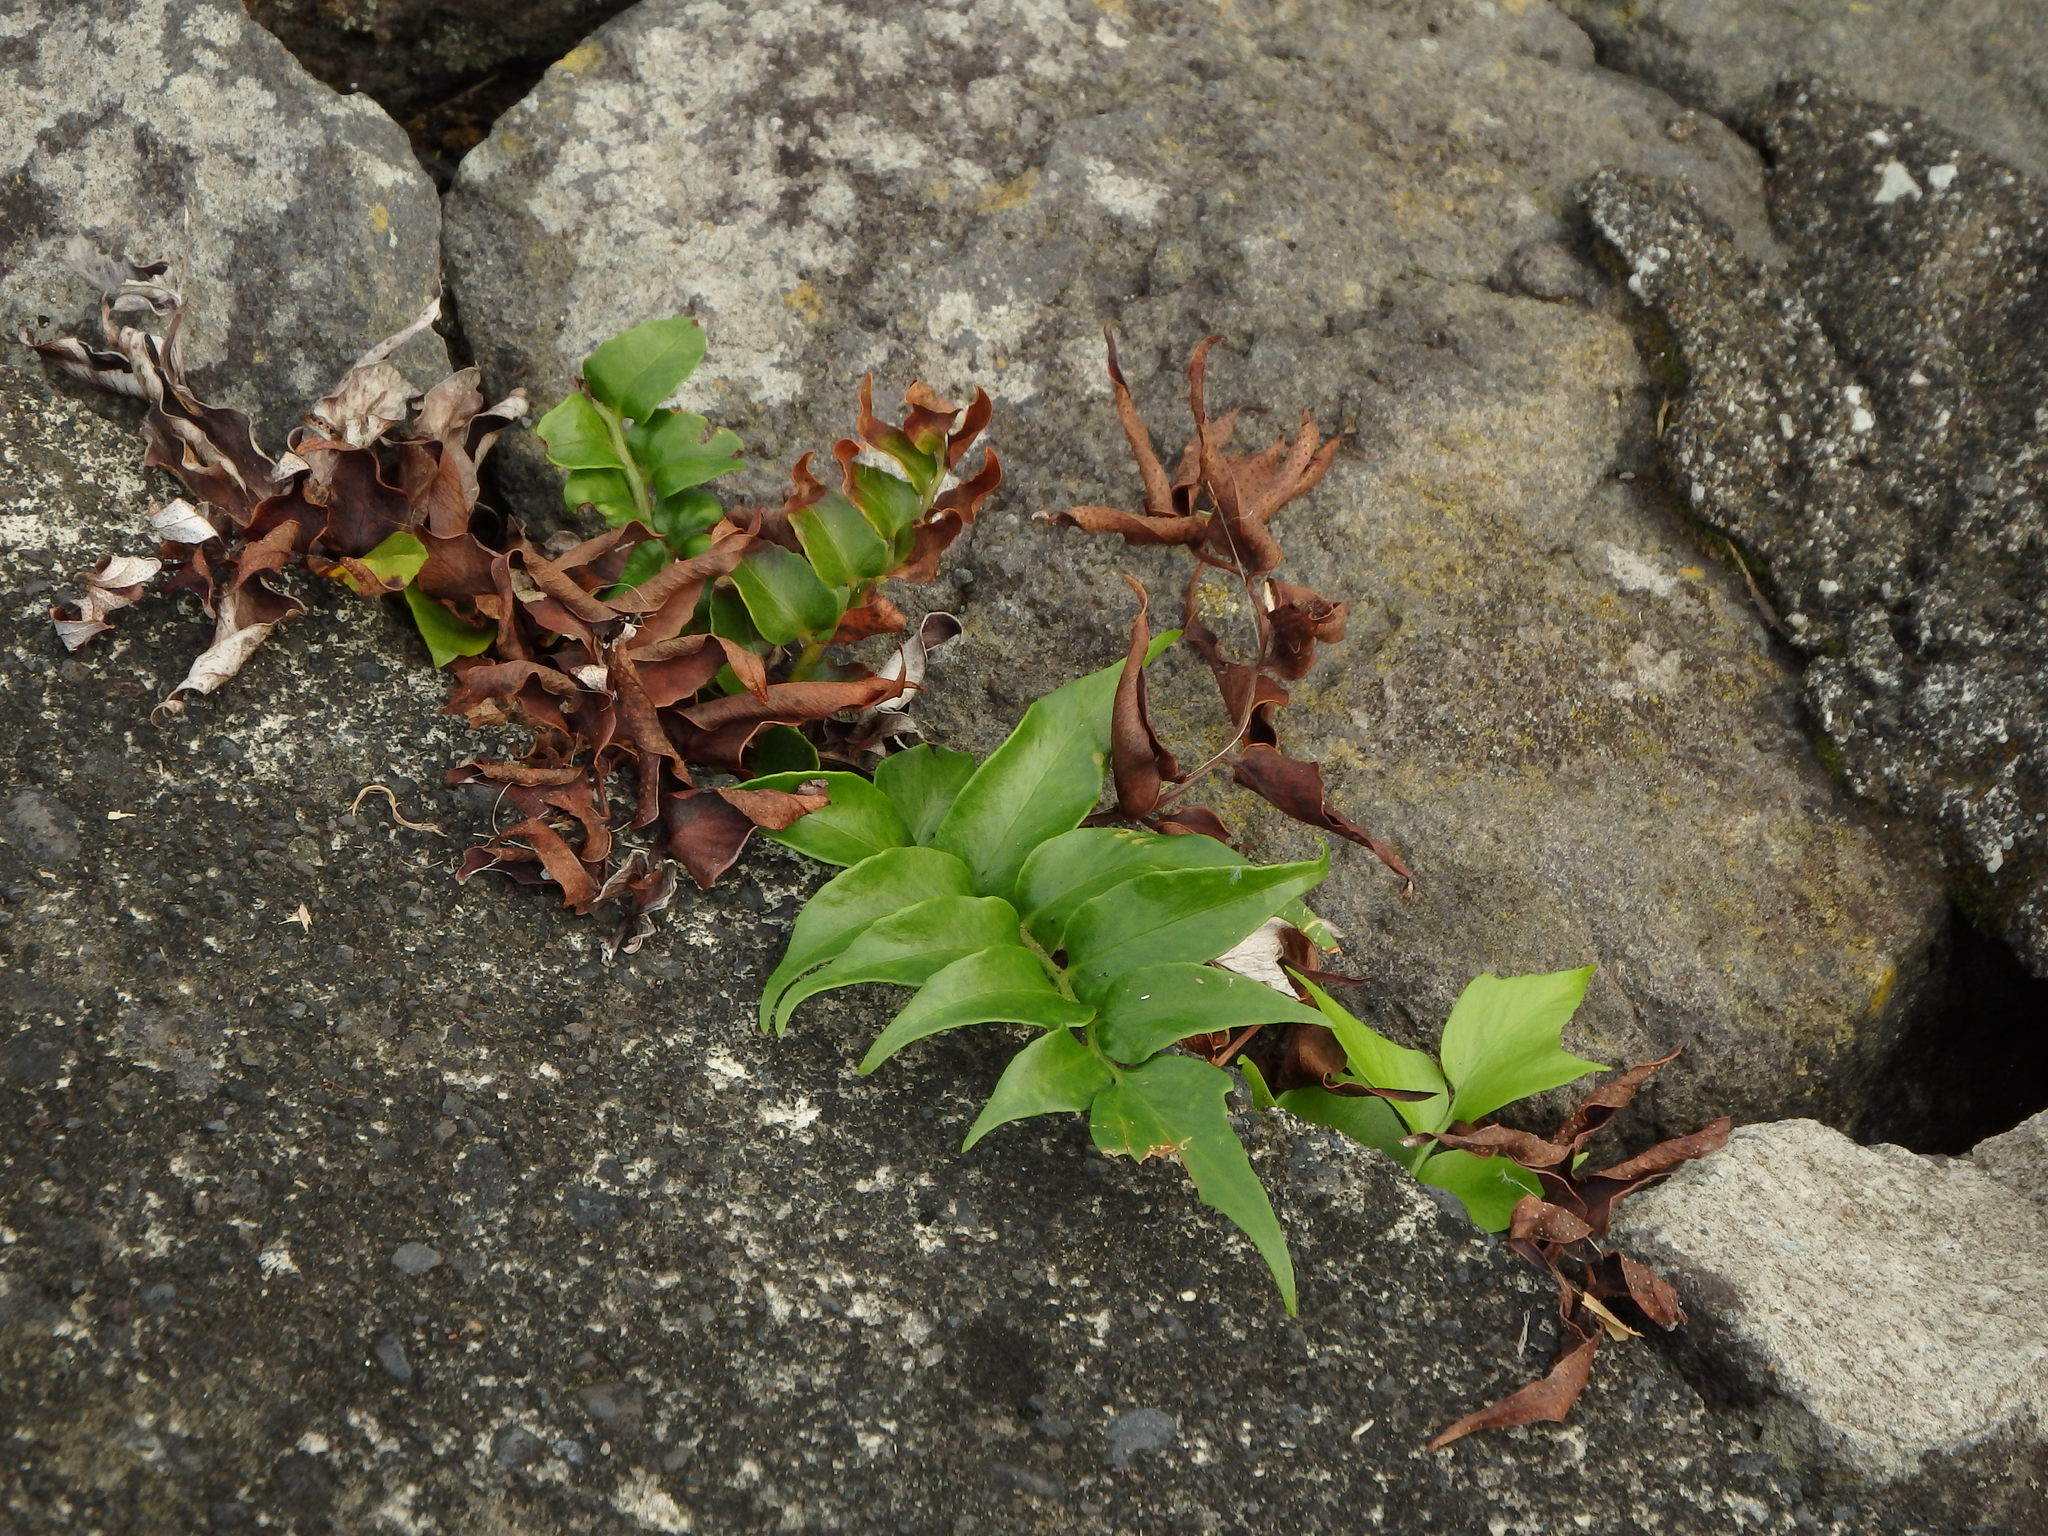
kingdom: Plantae
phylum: Tracheophyta
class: Polypodiopsida
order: Polypodiales
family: Dryopteridaceae
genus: Cyrtomium
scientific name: Cyrtomium falcatum
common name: House holly-fern
